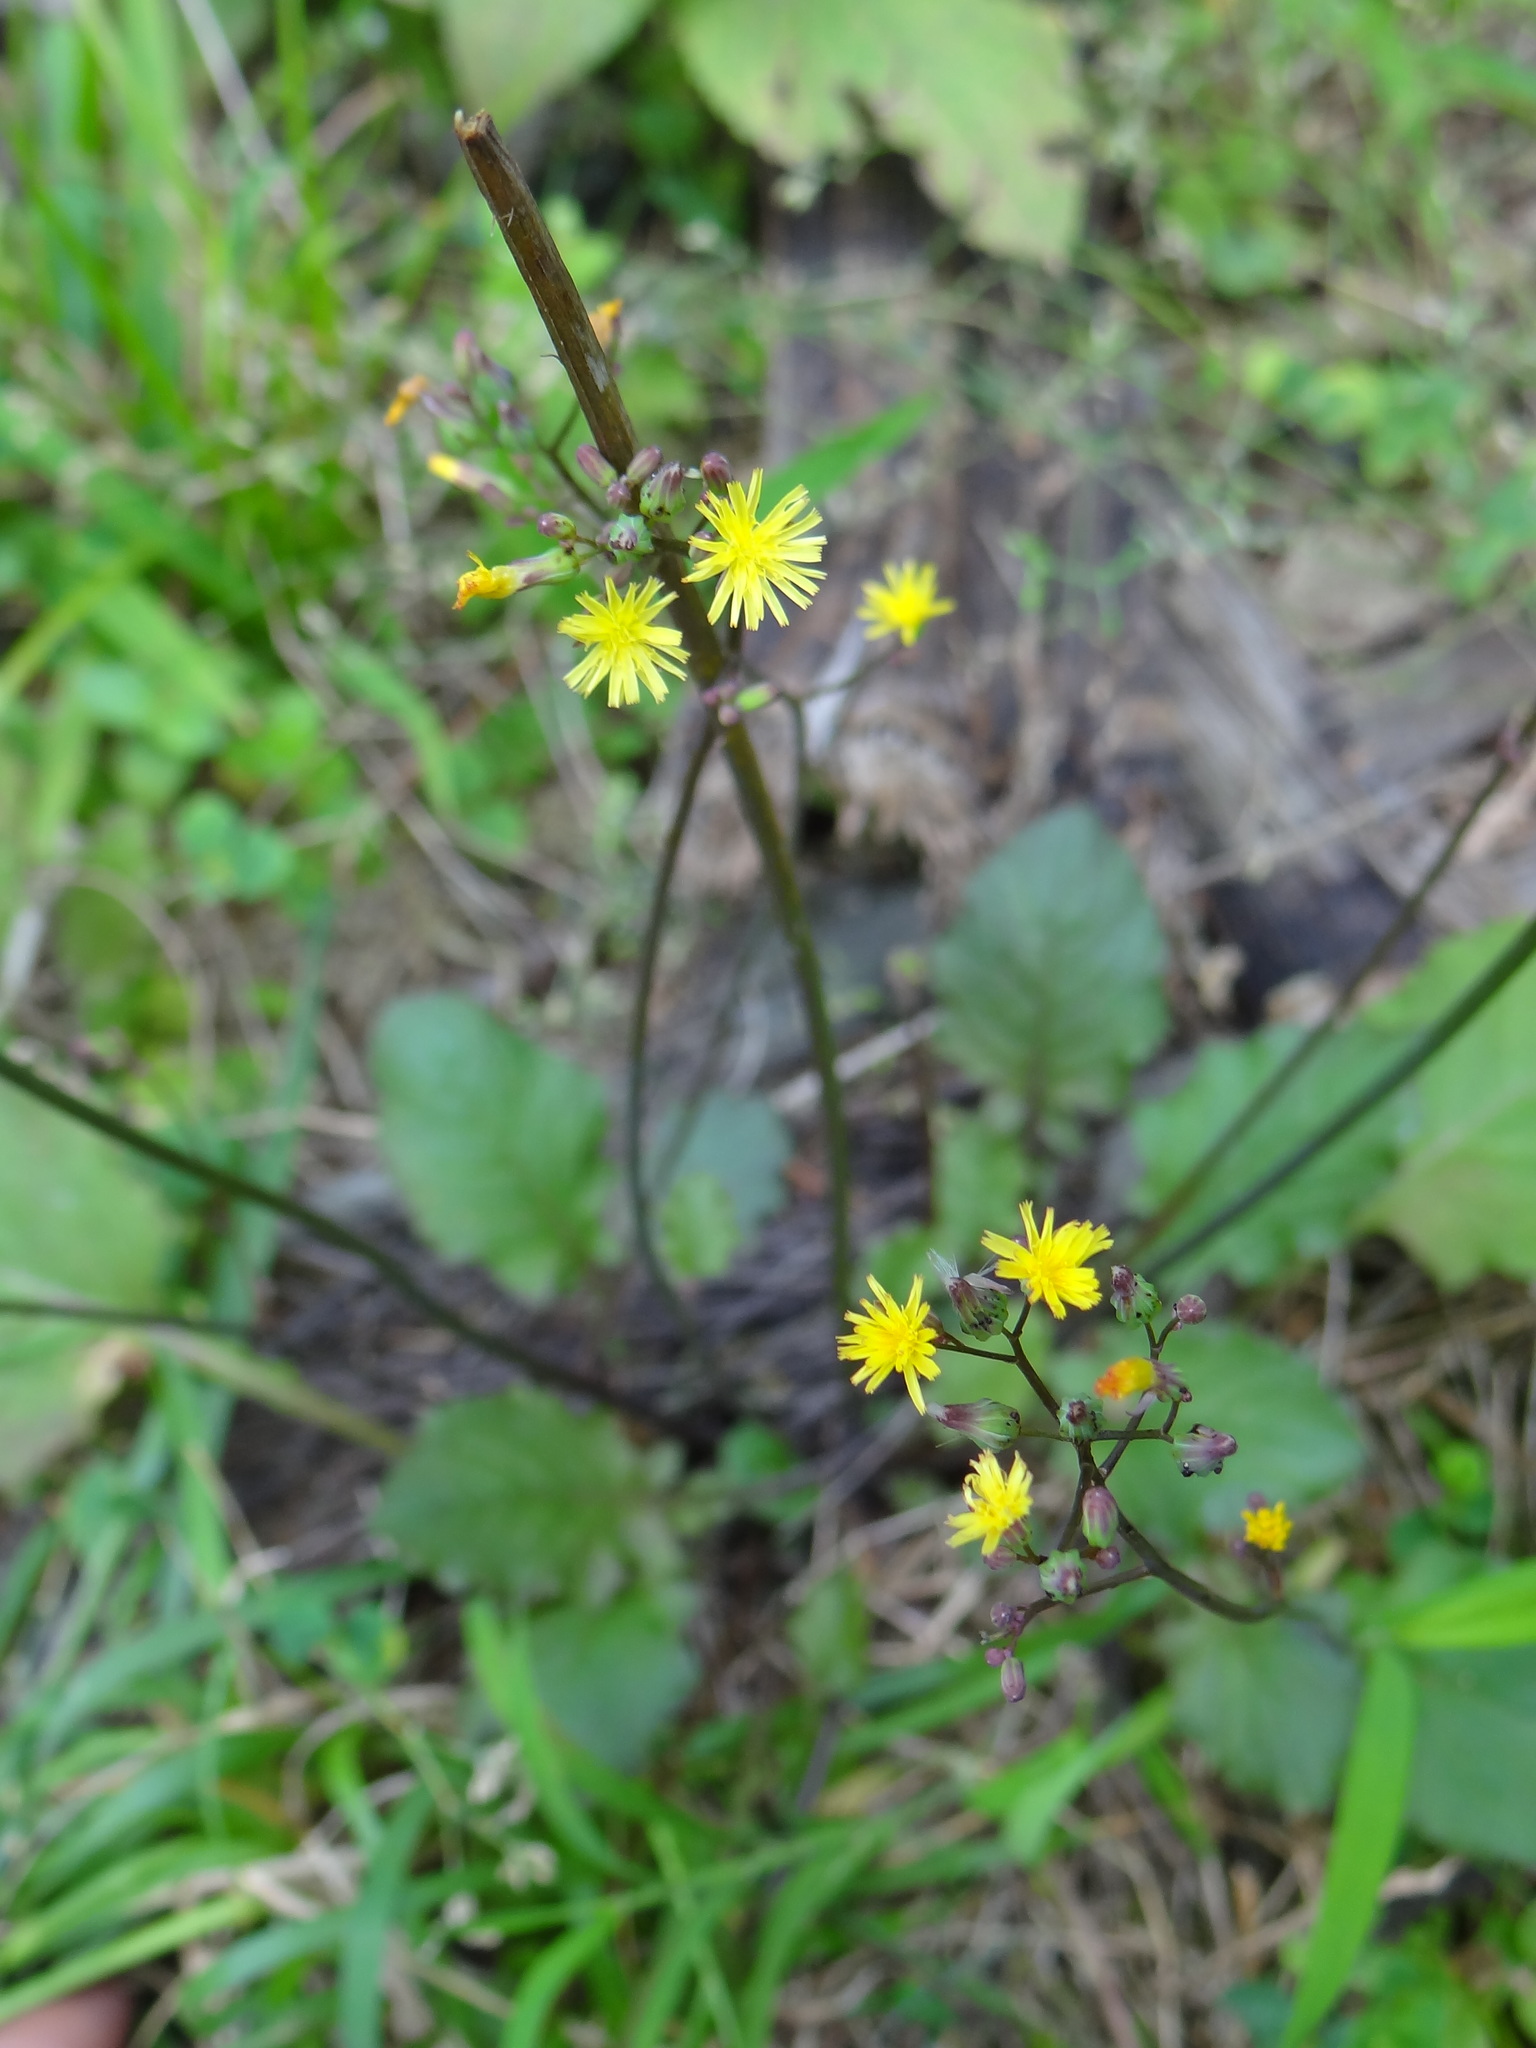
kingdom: Plantae
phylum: Tracheophyta
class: Magnoliopsida
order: Asterales
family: Asteraceae
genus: Youngia
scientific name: Youngia japonica
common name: Oriental false hawksbeard
